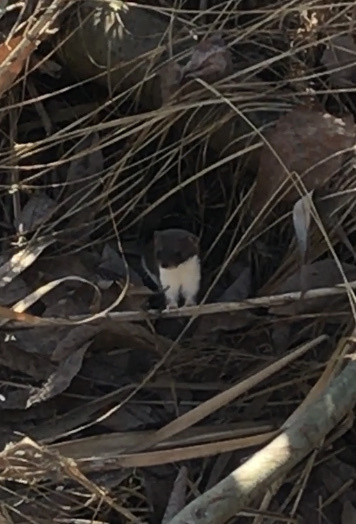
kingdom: Animalia
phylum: Chordata
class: Mammalia
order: Carnivora
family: Mustelidae
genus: Mustela
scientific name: Mustela nivalis
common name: Least weasel
